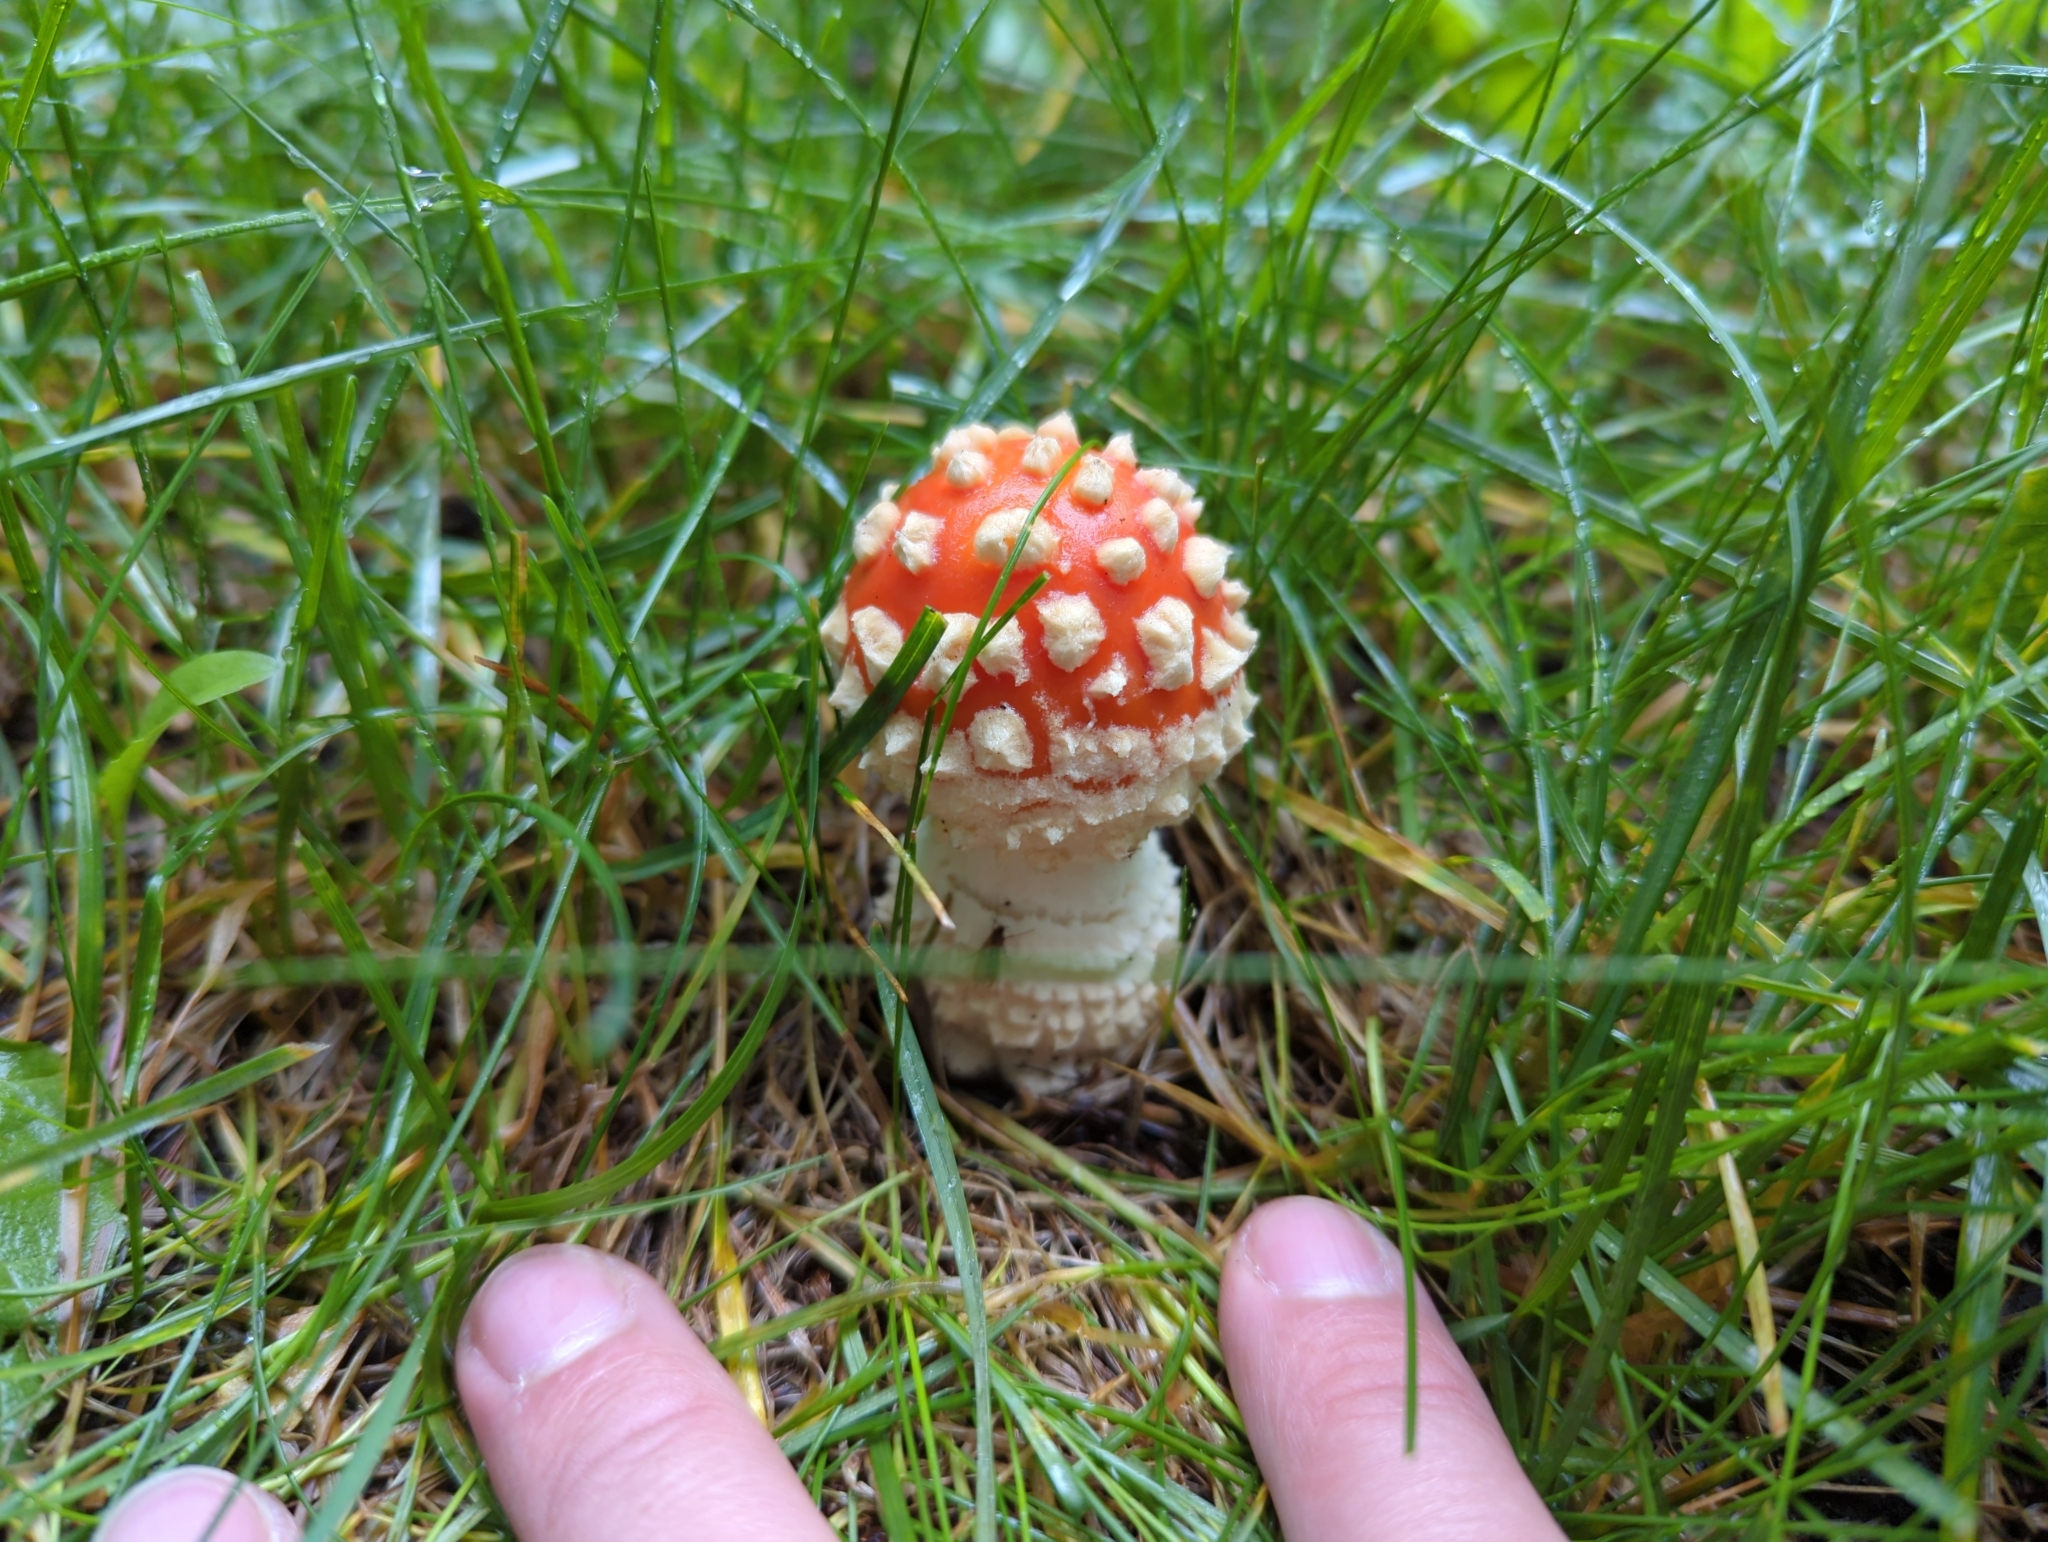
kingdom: Fungi
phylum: Basidiomycota
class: Agaricomycetes
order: Agaricales
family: Amanitaceae
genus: Amanita
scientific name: Amanita muscaria
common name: Fly agaric
